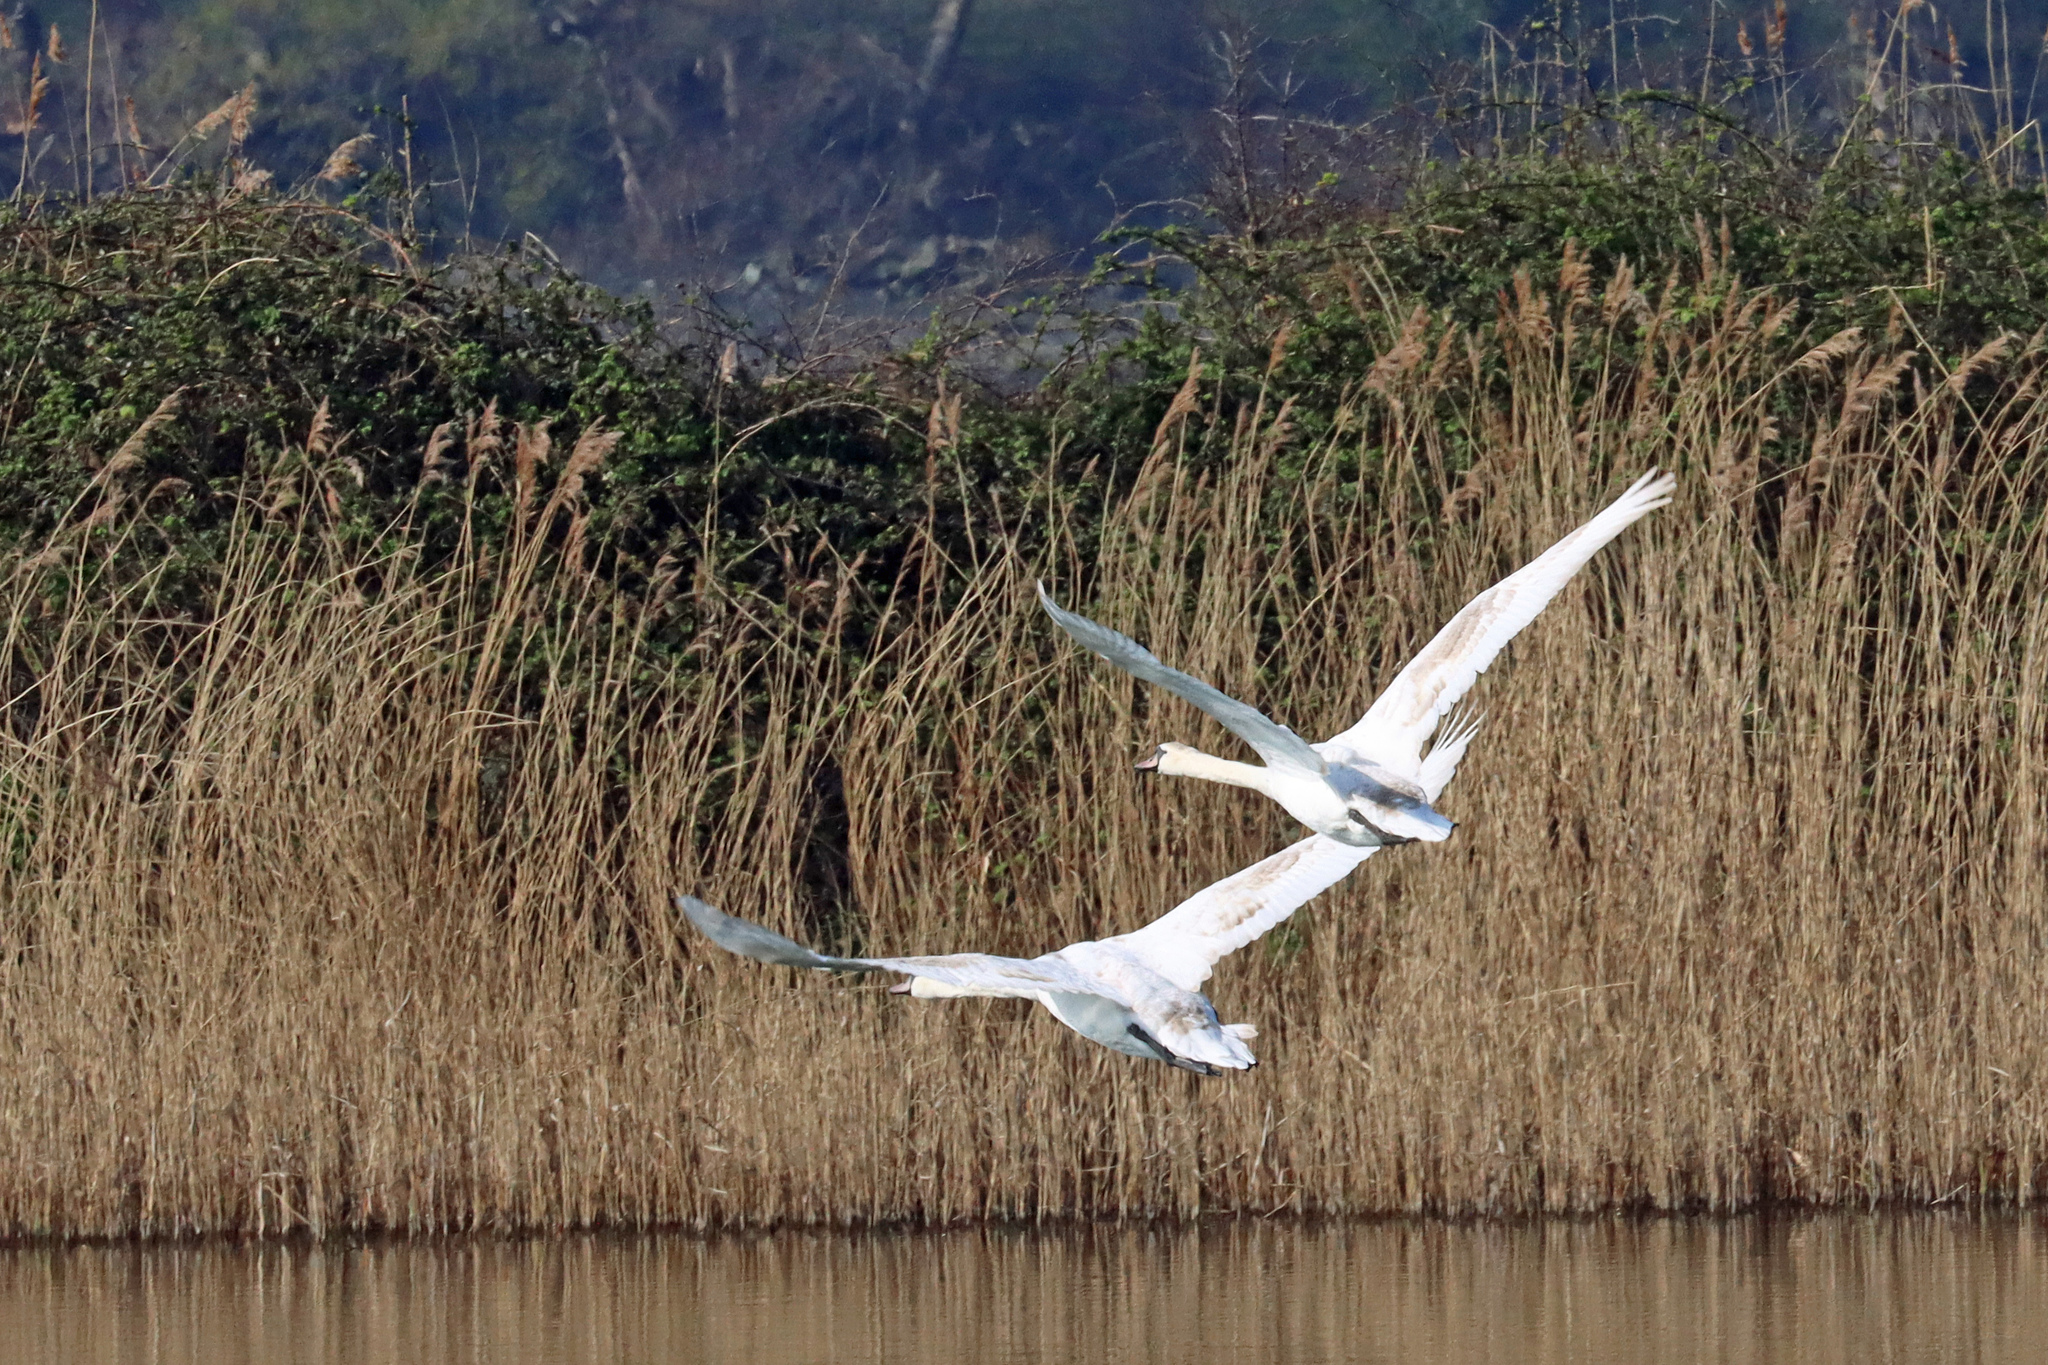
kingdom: Animalia
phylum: Chordata
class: Aves
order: Anseriformes
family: Anatidae
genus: Cygnus
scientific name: Cygnus olor
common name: Mute swan
